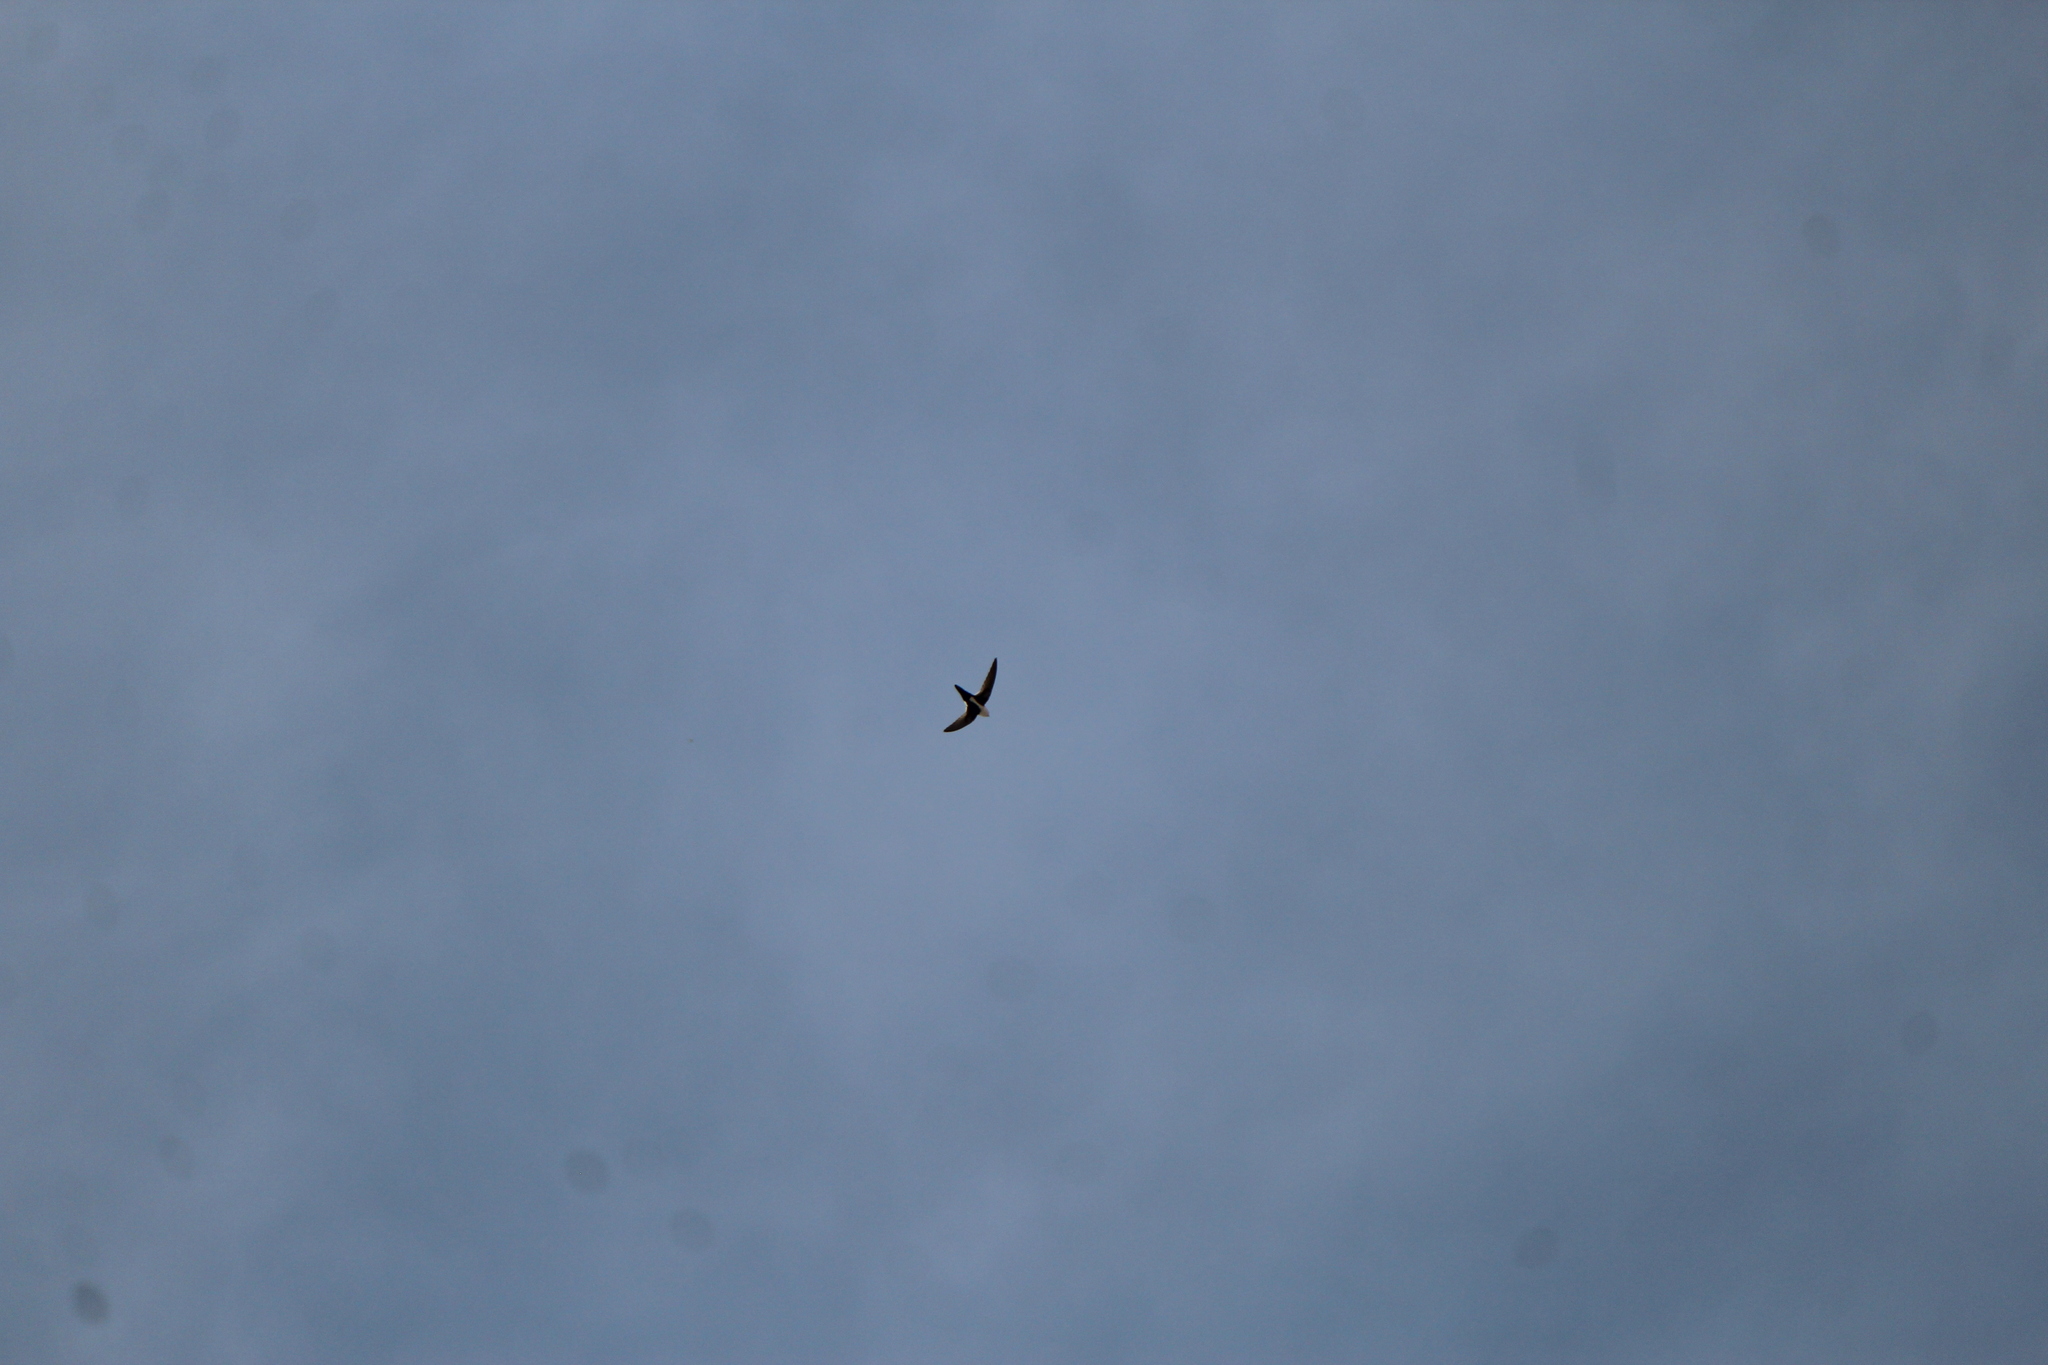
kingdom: Animalia
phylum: Chordata
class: Aves
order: Apodiformes
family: Apodidae
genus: Aeronautes
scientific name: Aeronautes saxatalis
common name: White-throated swift
